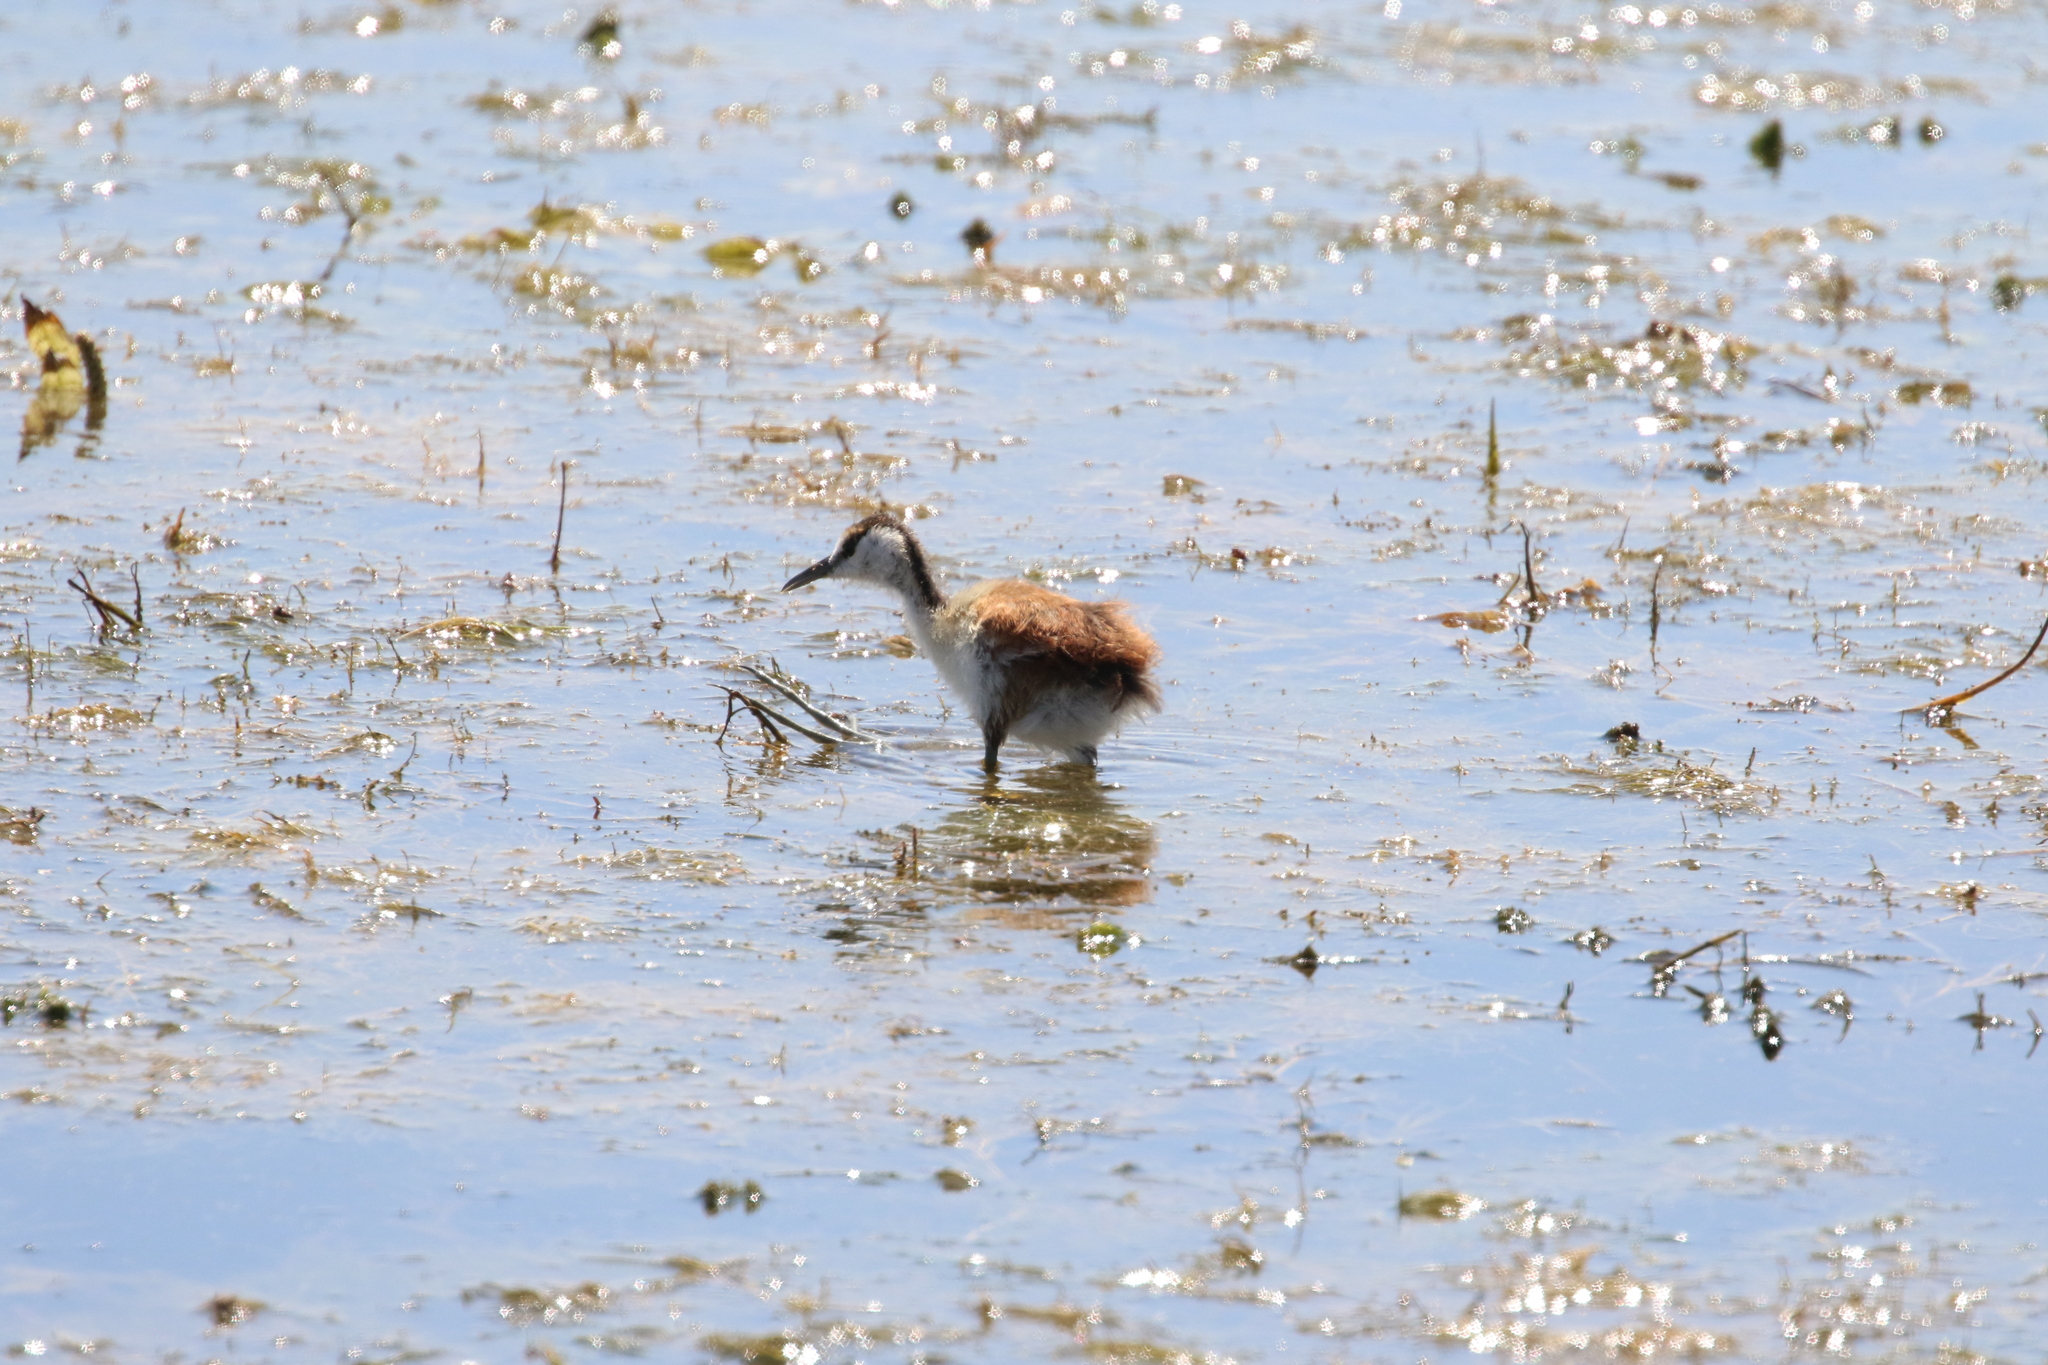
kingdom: Animalia
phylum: Chordata
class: Aves
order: Charadriiformes
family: Jacanidae
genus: Actophilornis
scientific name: Actophilornis africanus
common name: African jacana
